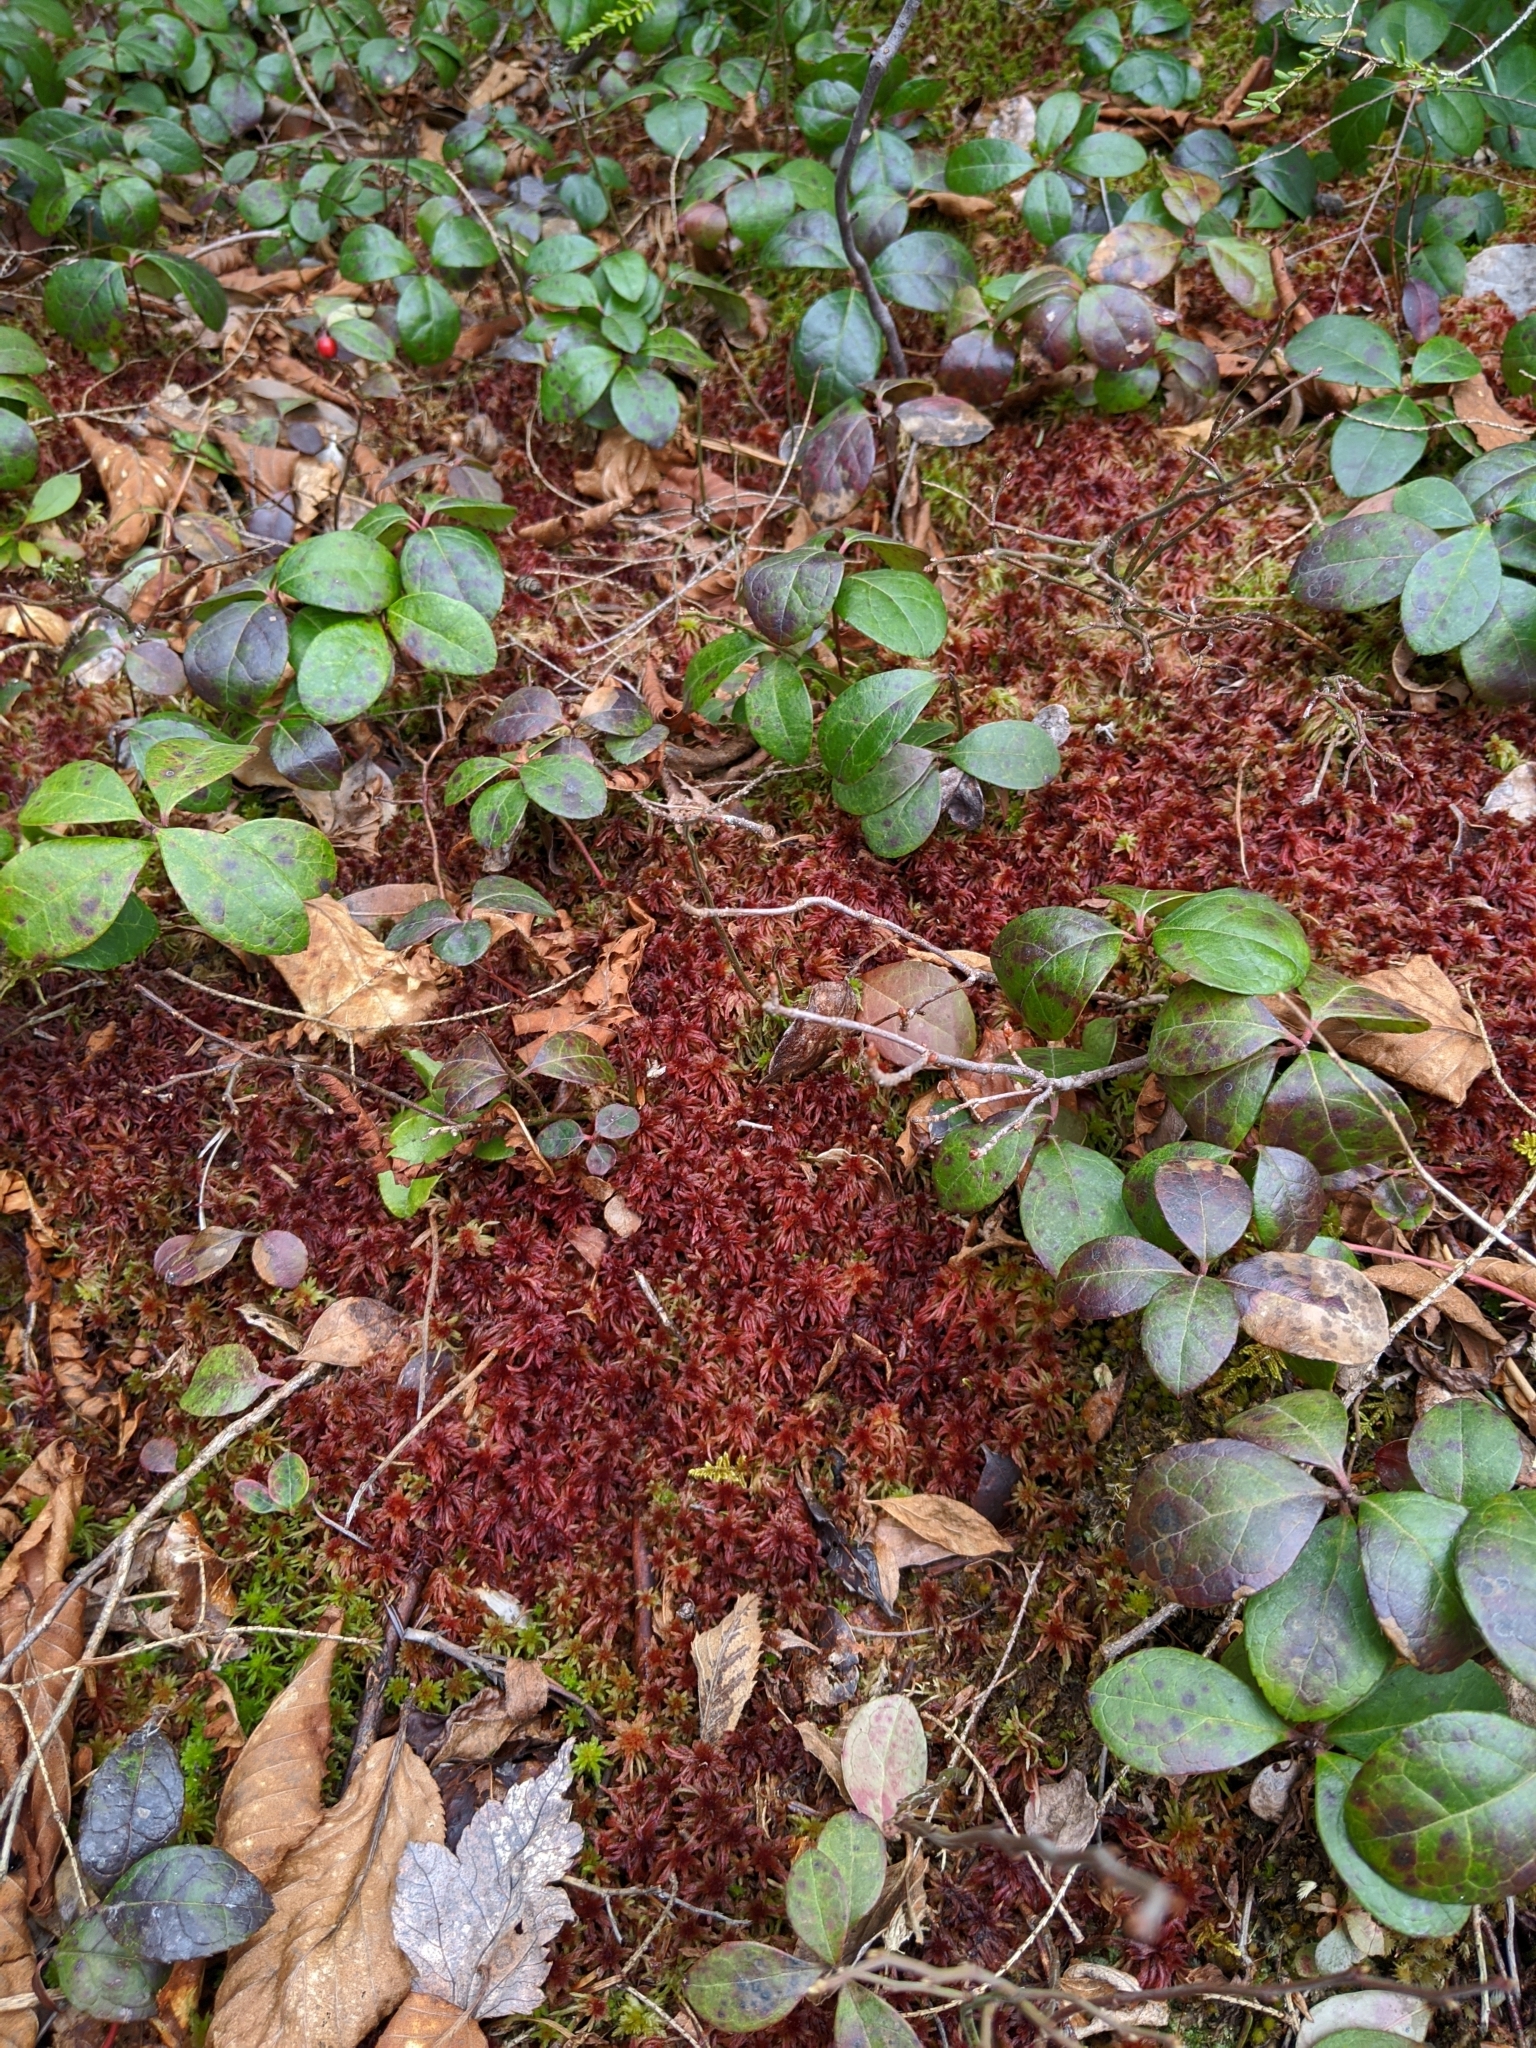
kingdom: Plantae
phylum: Tracheophyta
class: Magnoliopsida
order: Ericales
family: Ericaceae
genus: Gaultheria
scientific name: Gaultheria procumbens
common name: Checkerberry
